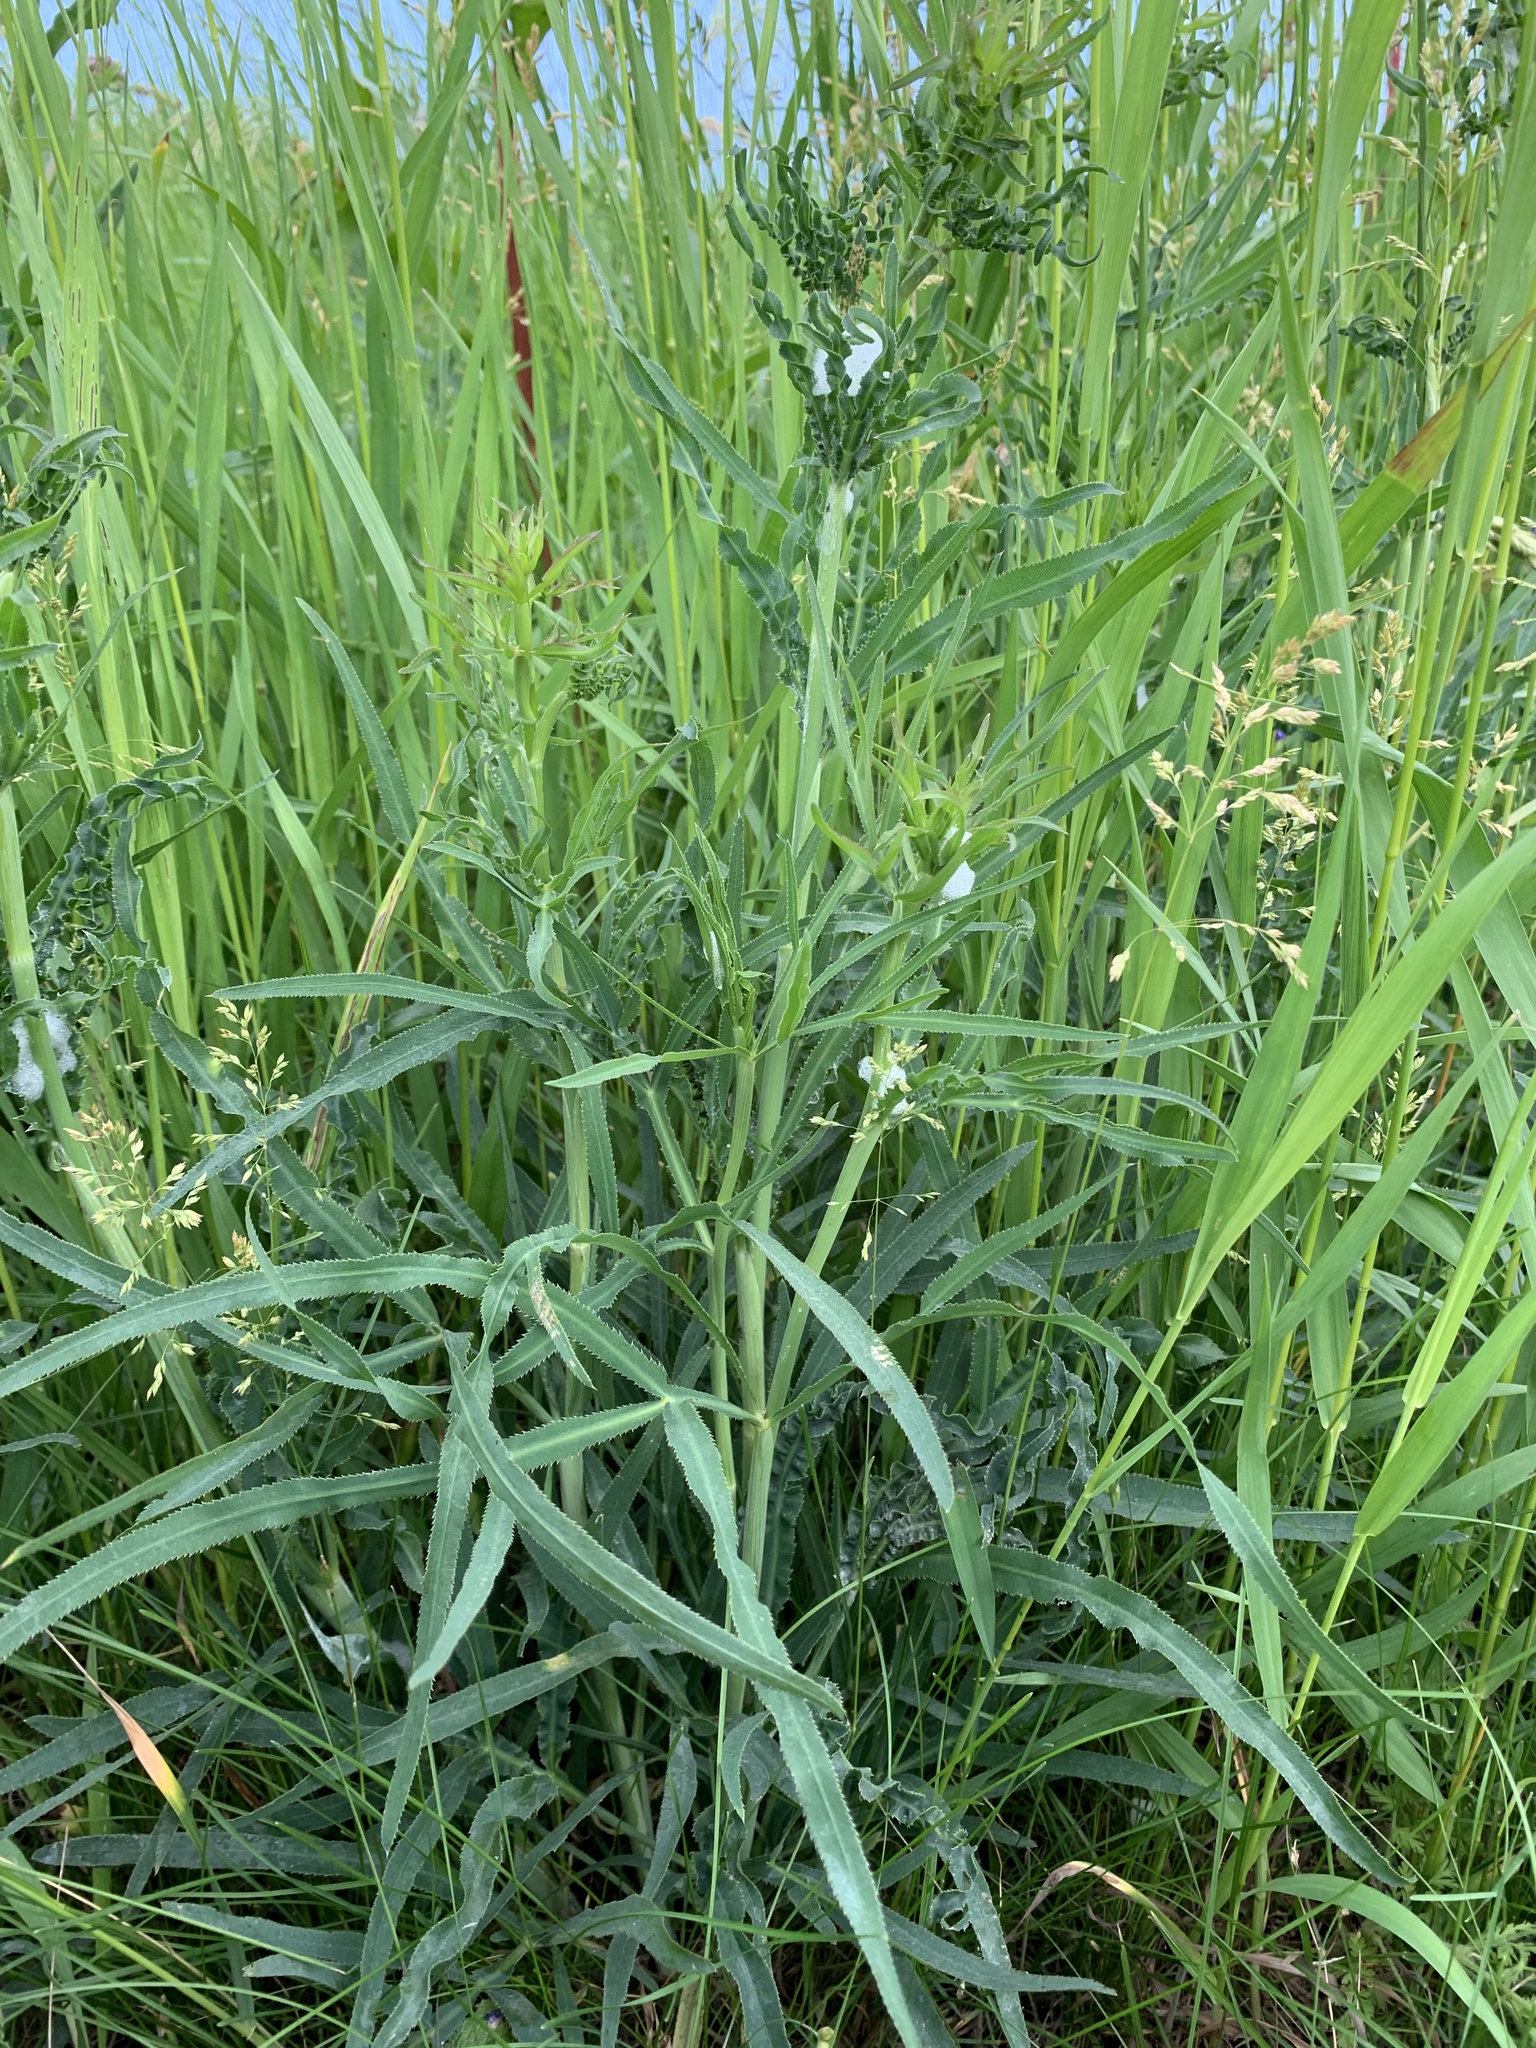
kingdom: Plantae
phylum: Tracheophyta
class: Magnoliopsida
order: Apiales
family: Apiaceae
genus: Falcaria
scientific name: Falcaria vulgaris
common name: Longleaf
